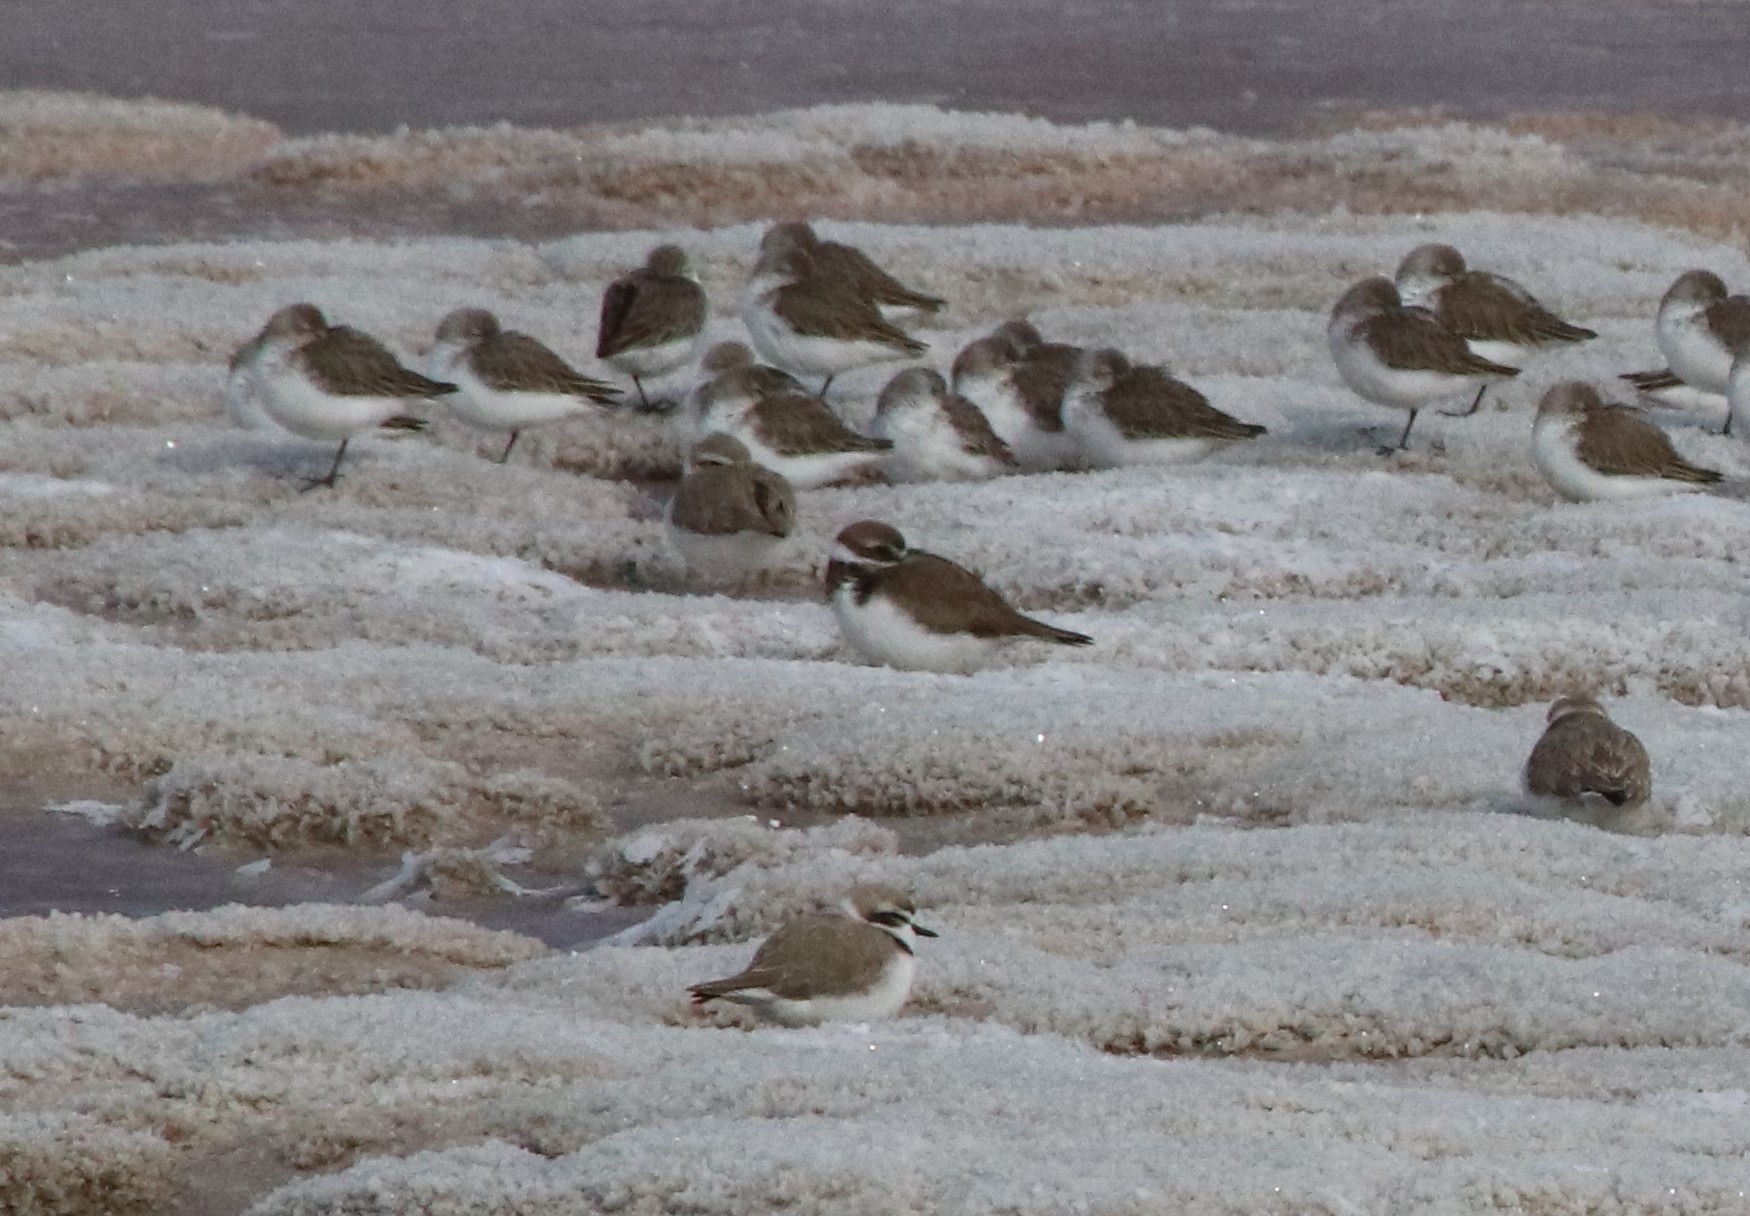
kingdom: Animalia
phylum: Chordata
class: Aves
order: Charadriiformes
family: Charadriidae
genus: Charadrius
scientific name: Charadrius semipalmatus
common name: Semipalmated plover
